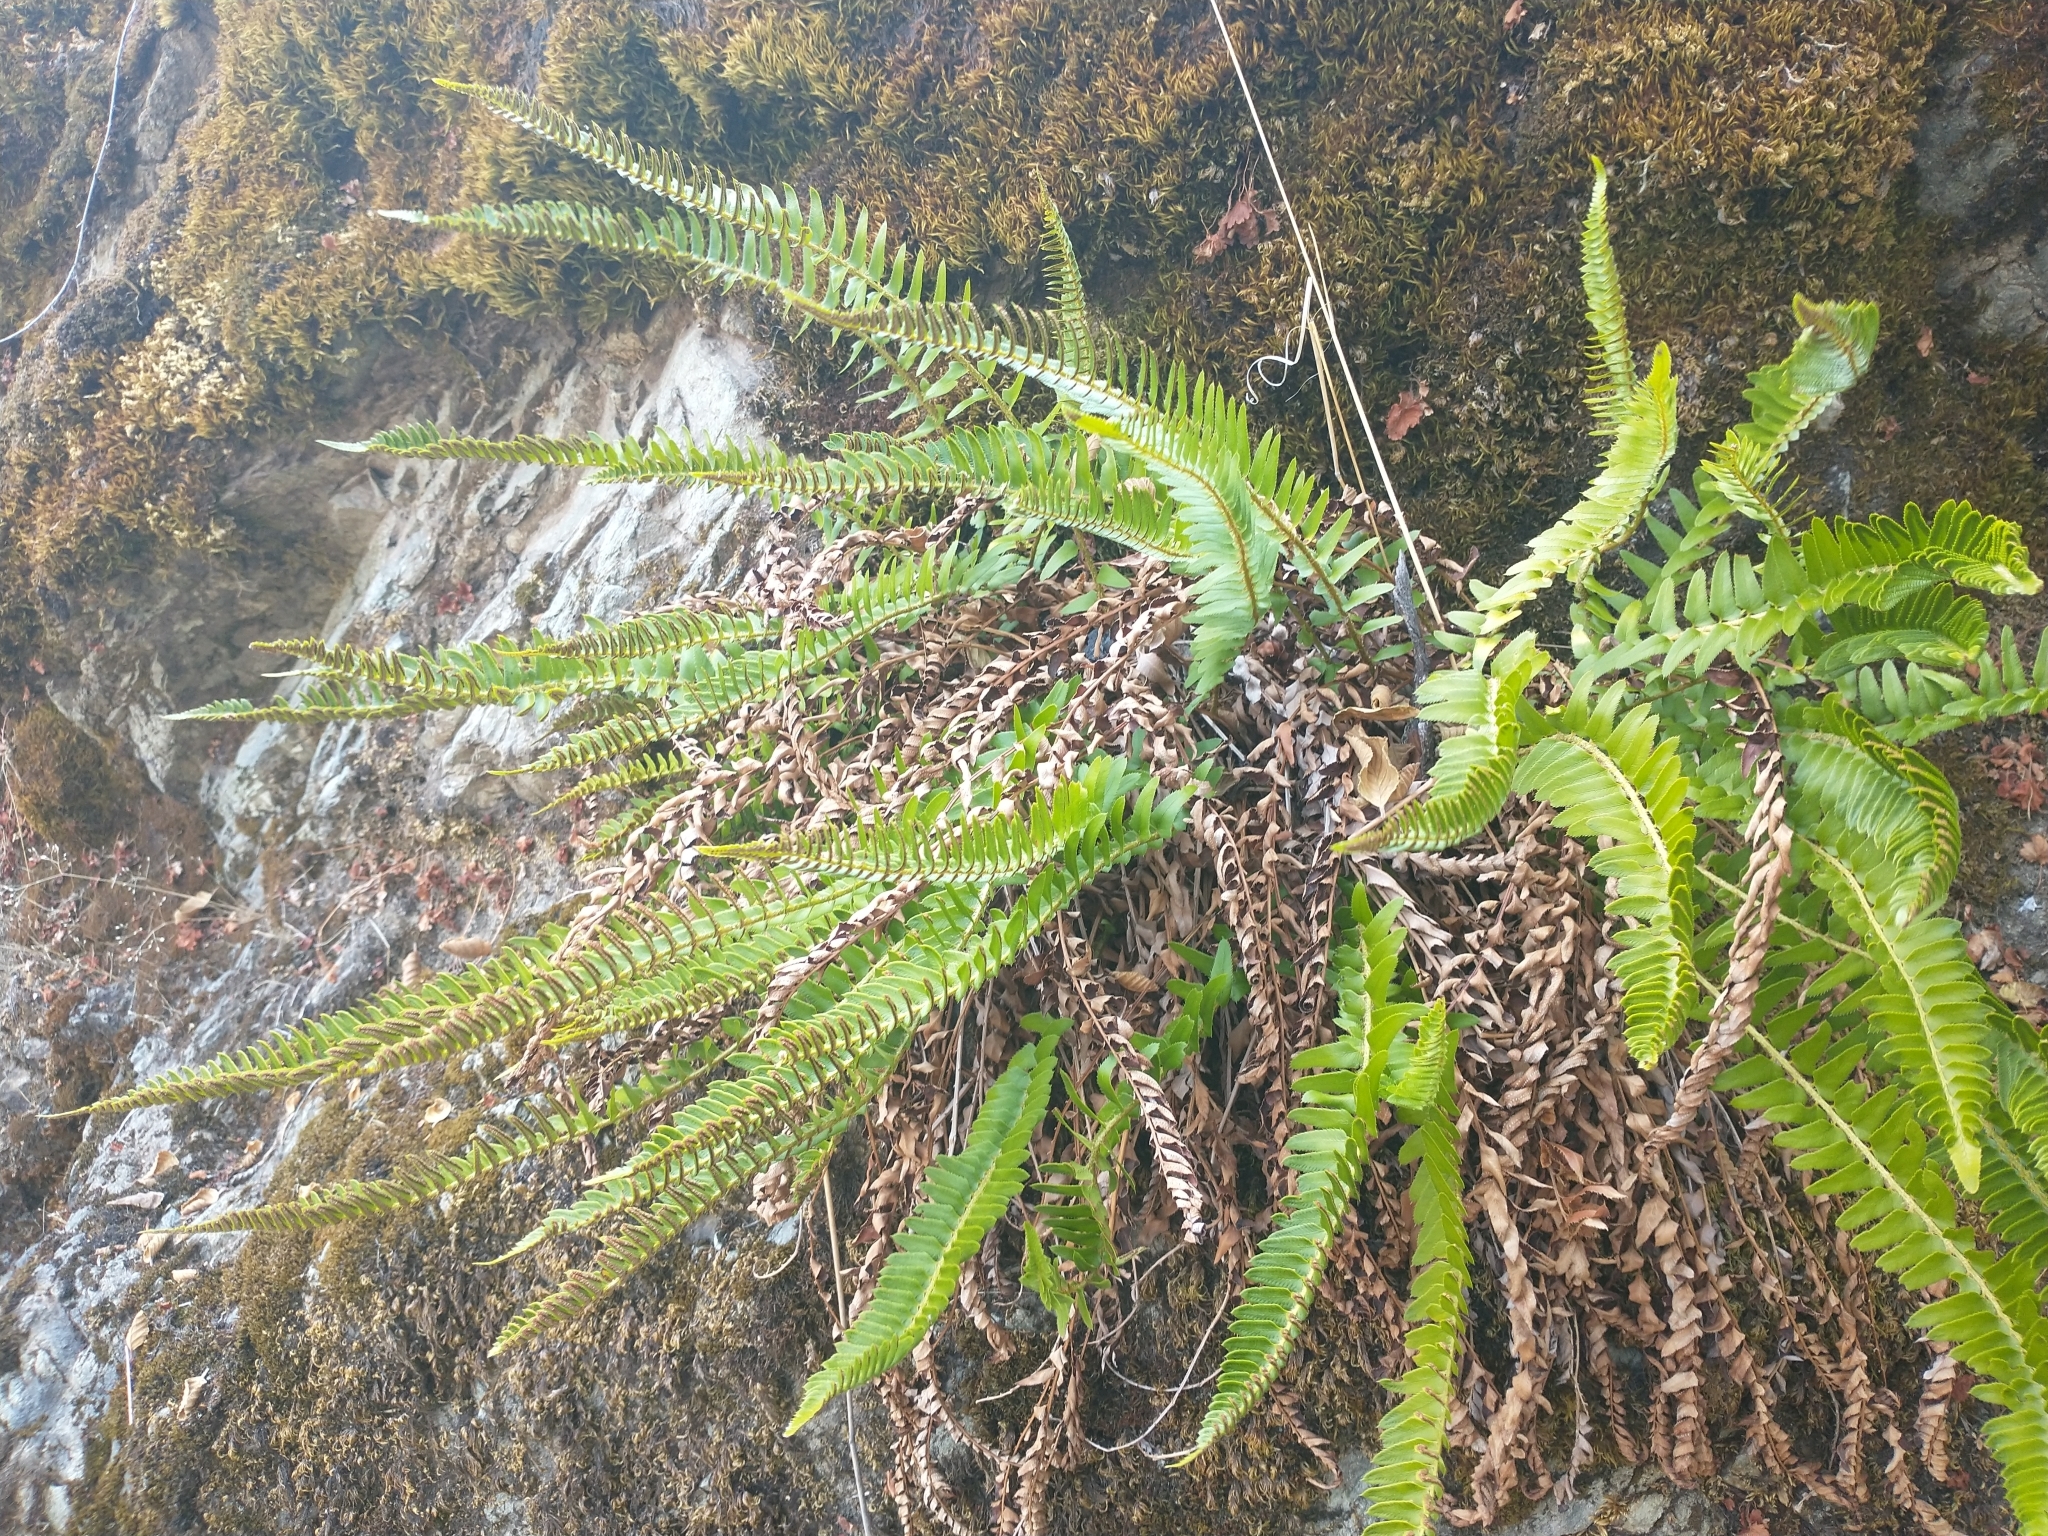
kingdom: Plantae
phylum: Tracheophyta
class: Polypodiopsida
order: Polypodiales
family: Dryopteridaceae
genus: Polystichum
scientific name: Polystichum imbricans
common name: Dwarf western sword fern
